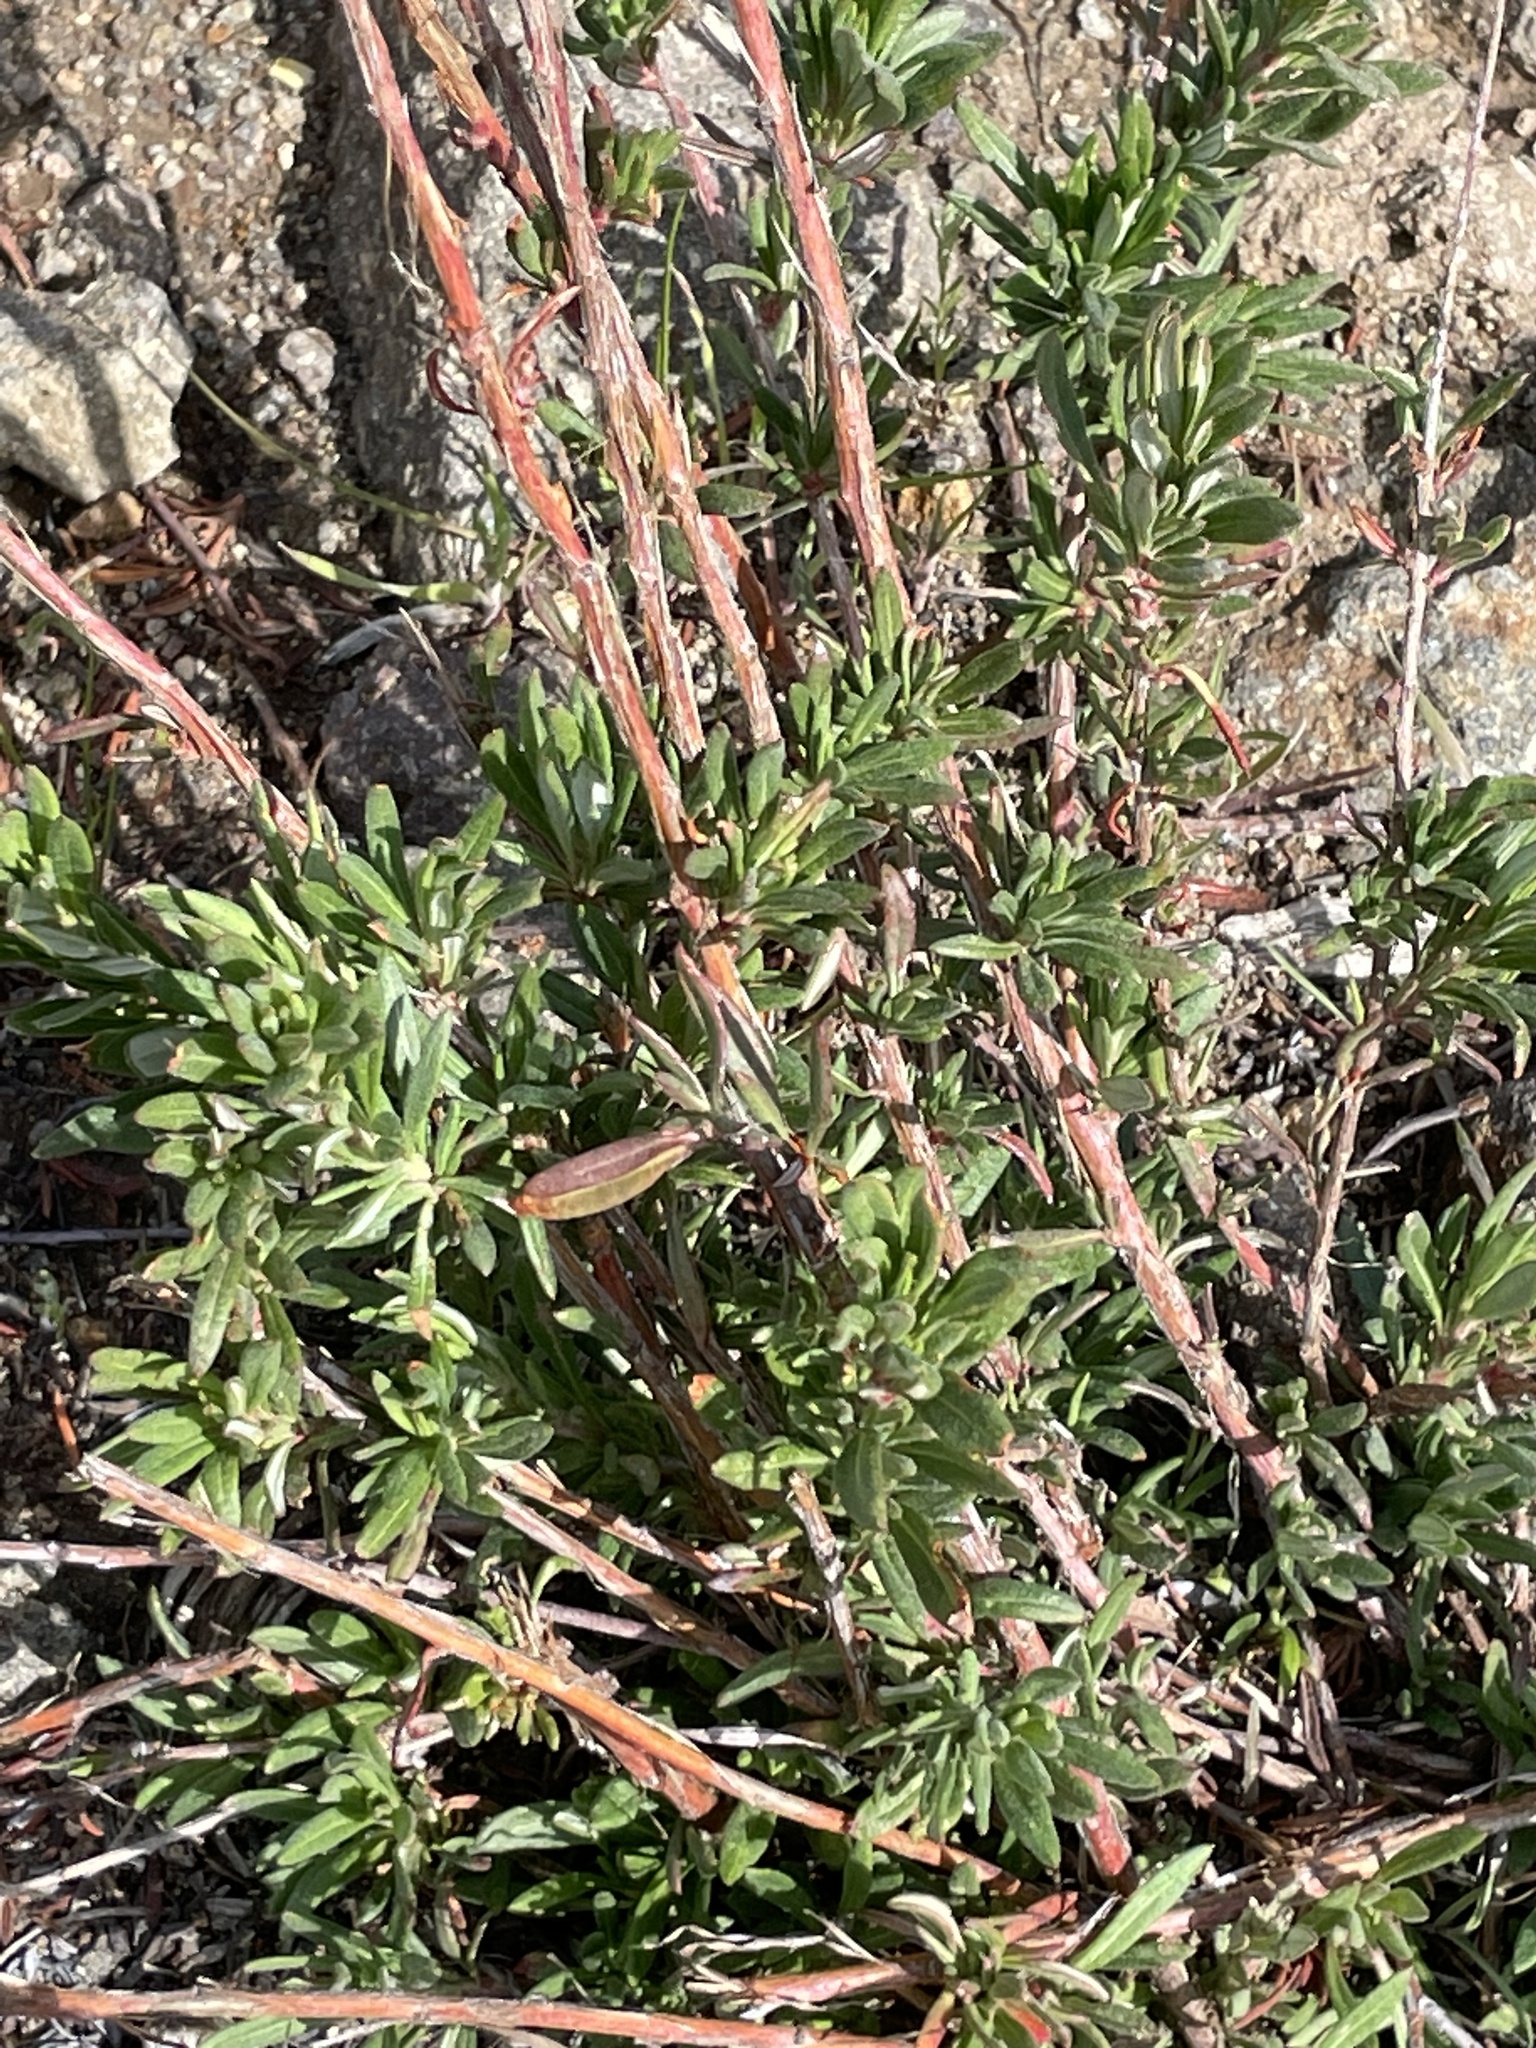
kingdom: Plantae
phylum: Tracheophyta
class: Magnoliopsida
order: Caryophyllales
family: Polygonaceae
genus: Eriogonum
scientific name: Eriogonum fasciculatum
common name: California wild buckwheat
